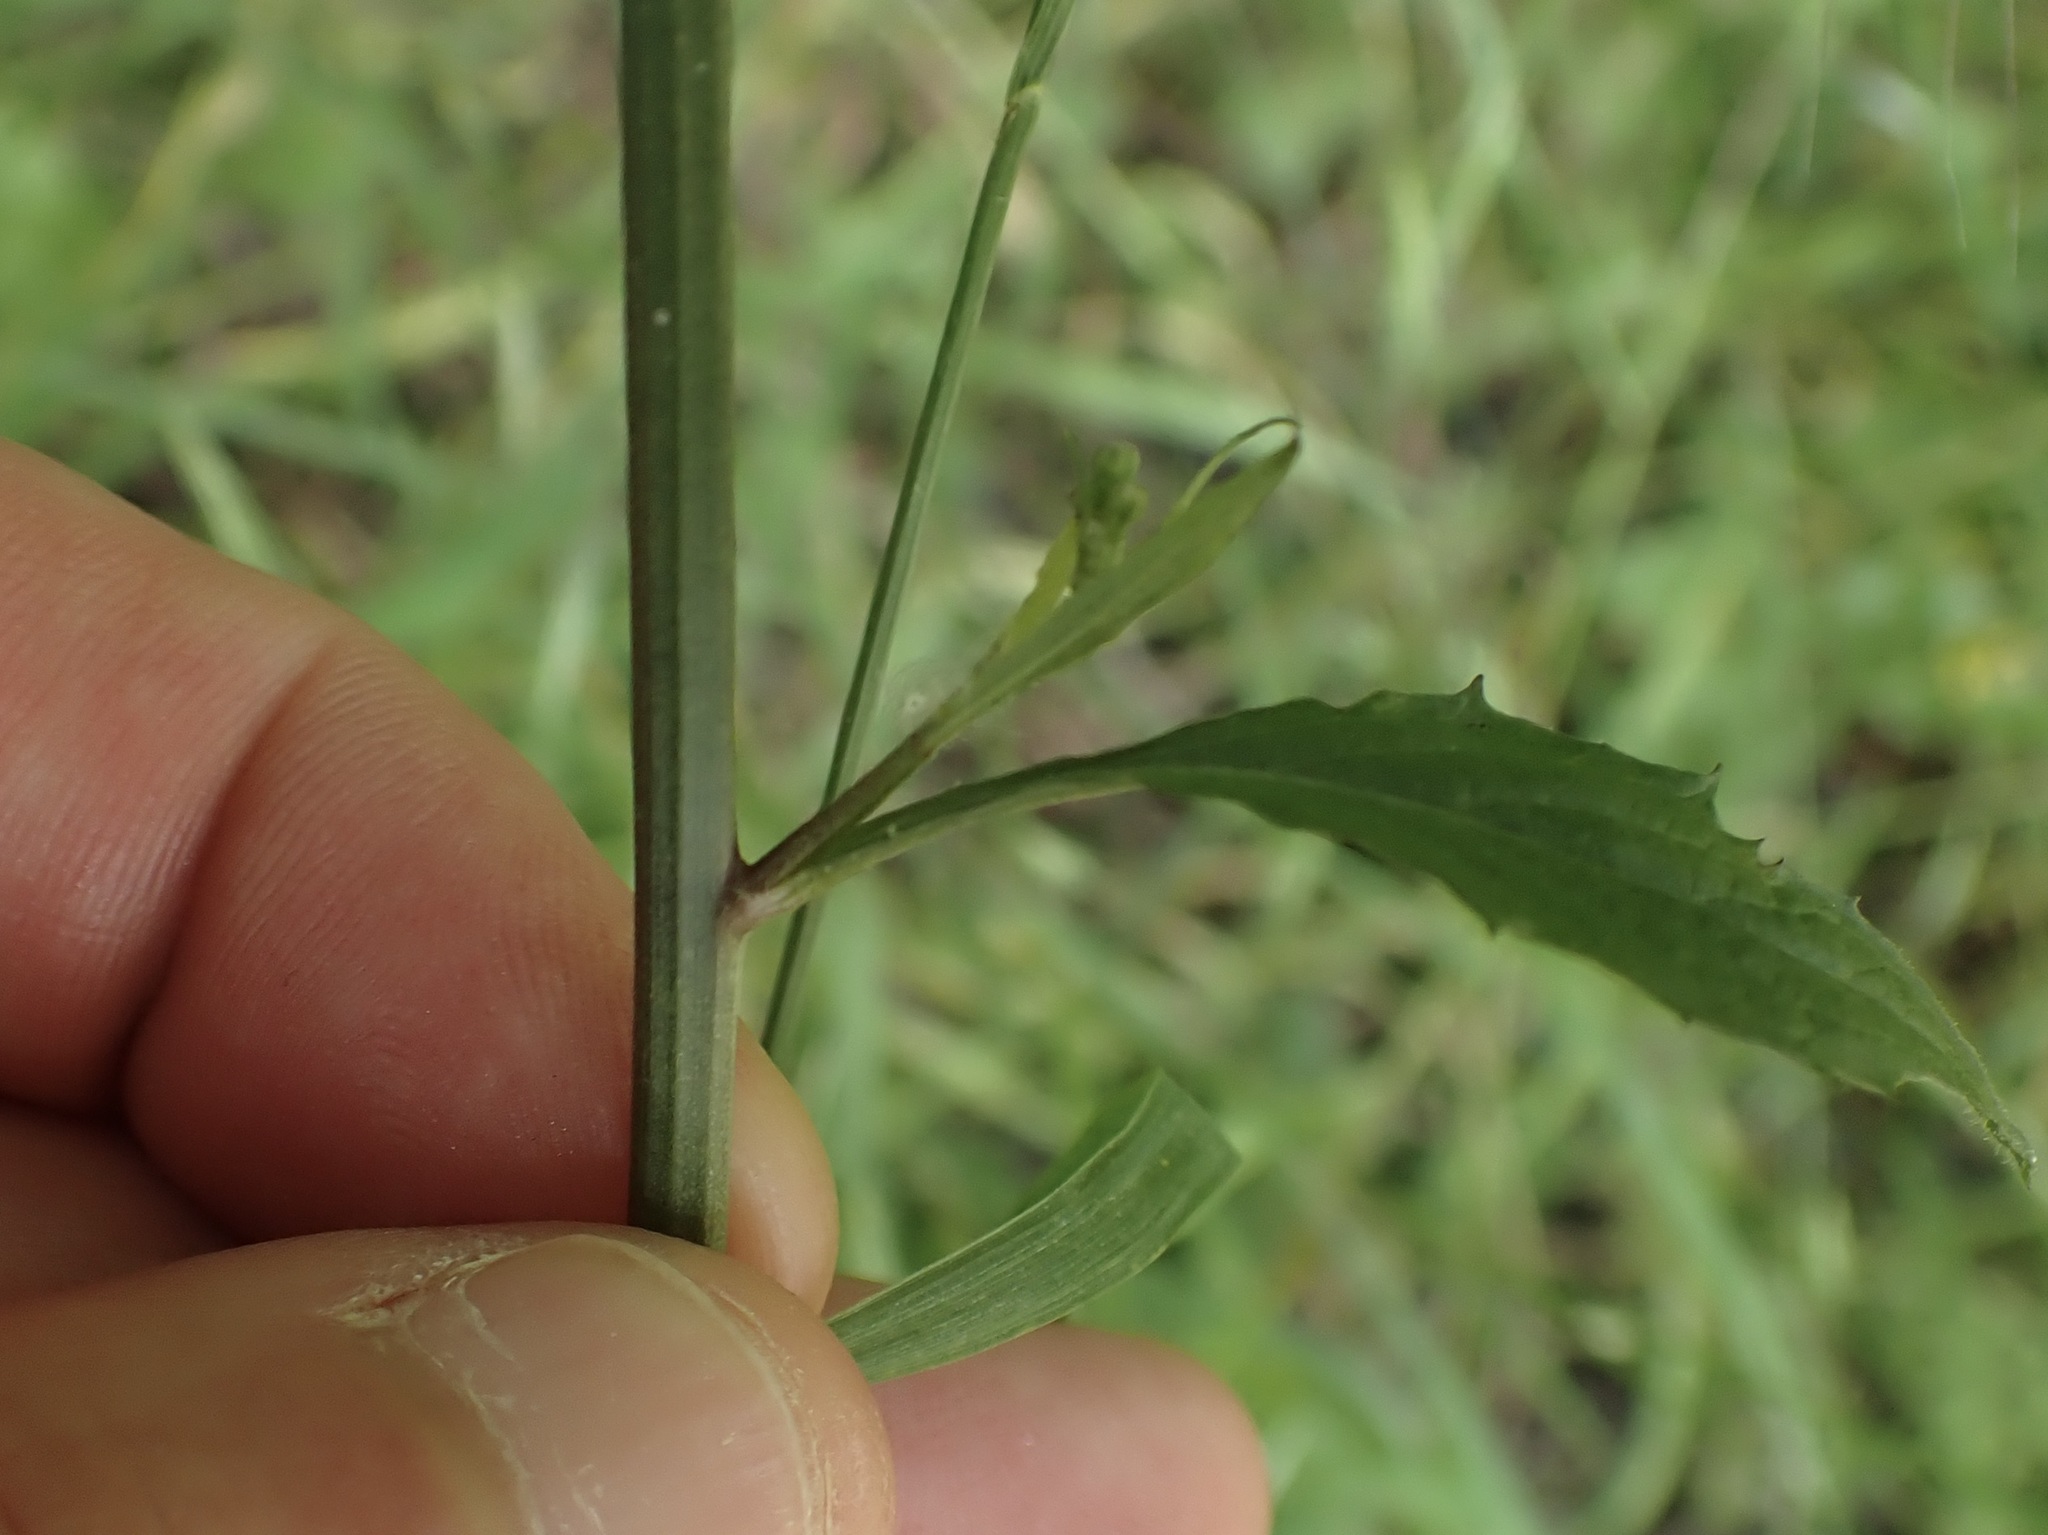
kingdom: Plantae
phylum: Tracheophyta
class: Magnoliopsida
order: Asterales
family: Asteraceae
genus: Lapsana
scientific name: Lapsana communis
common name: Nipplewort
